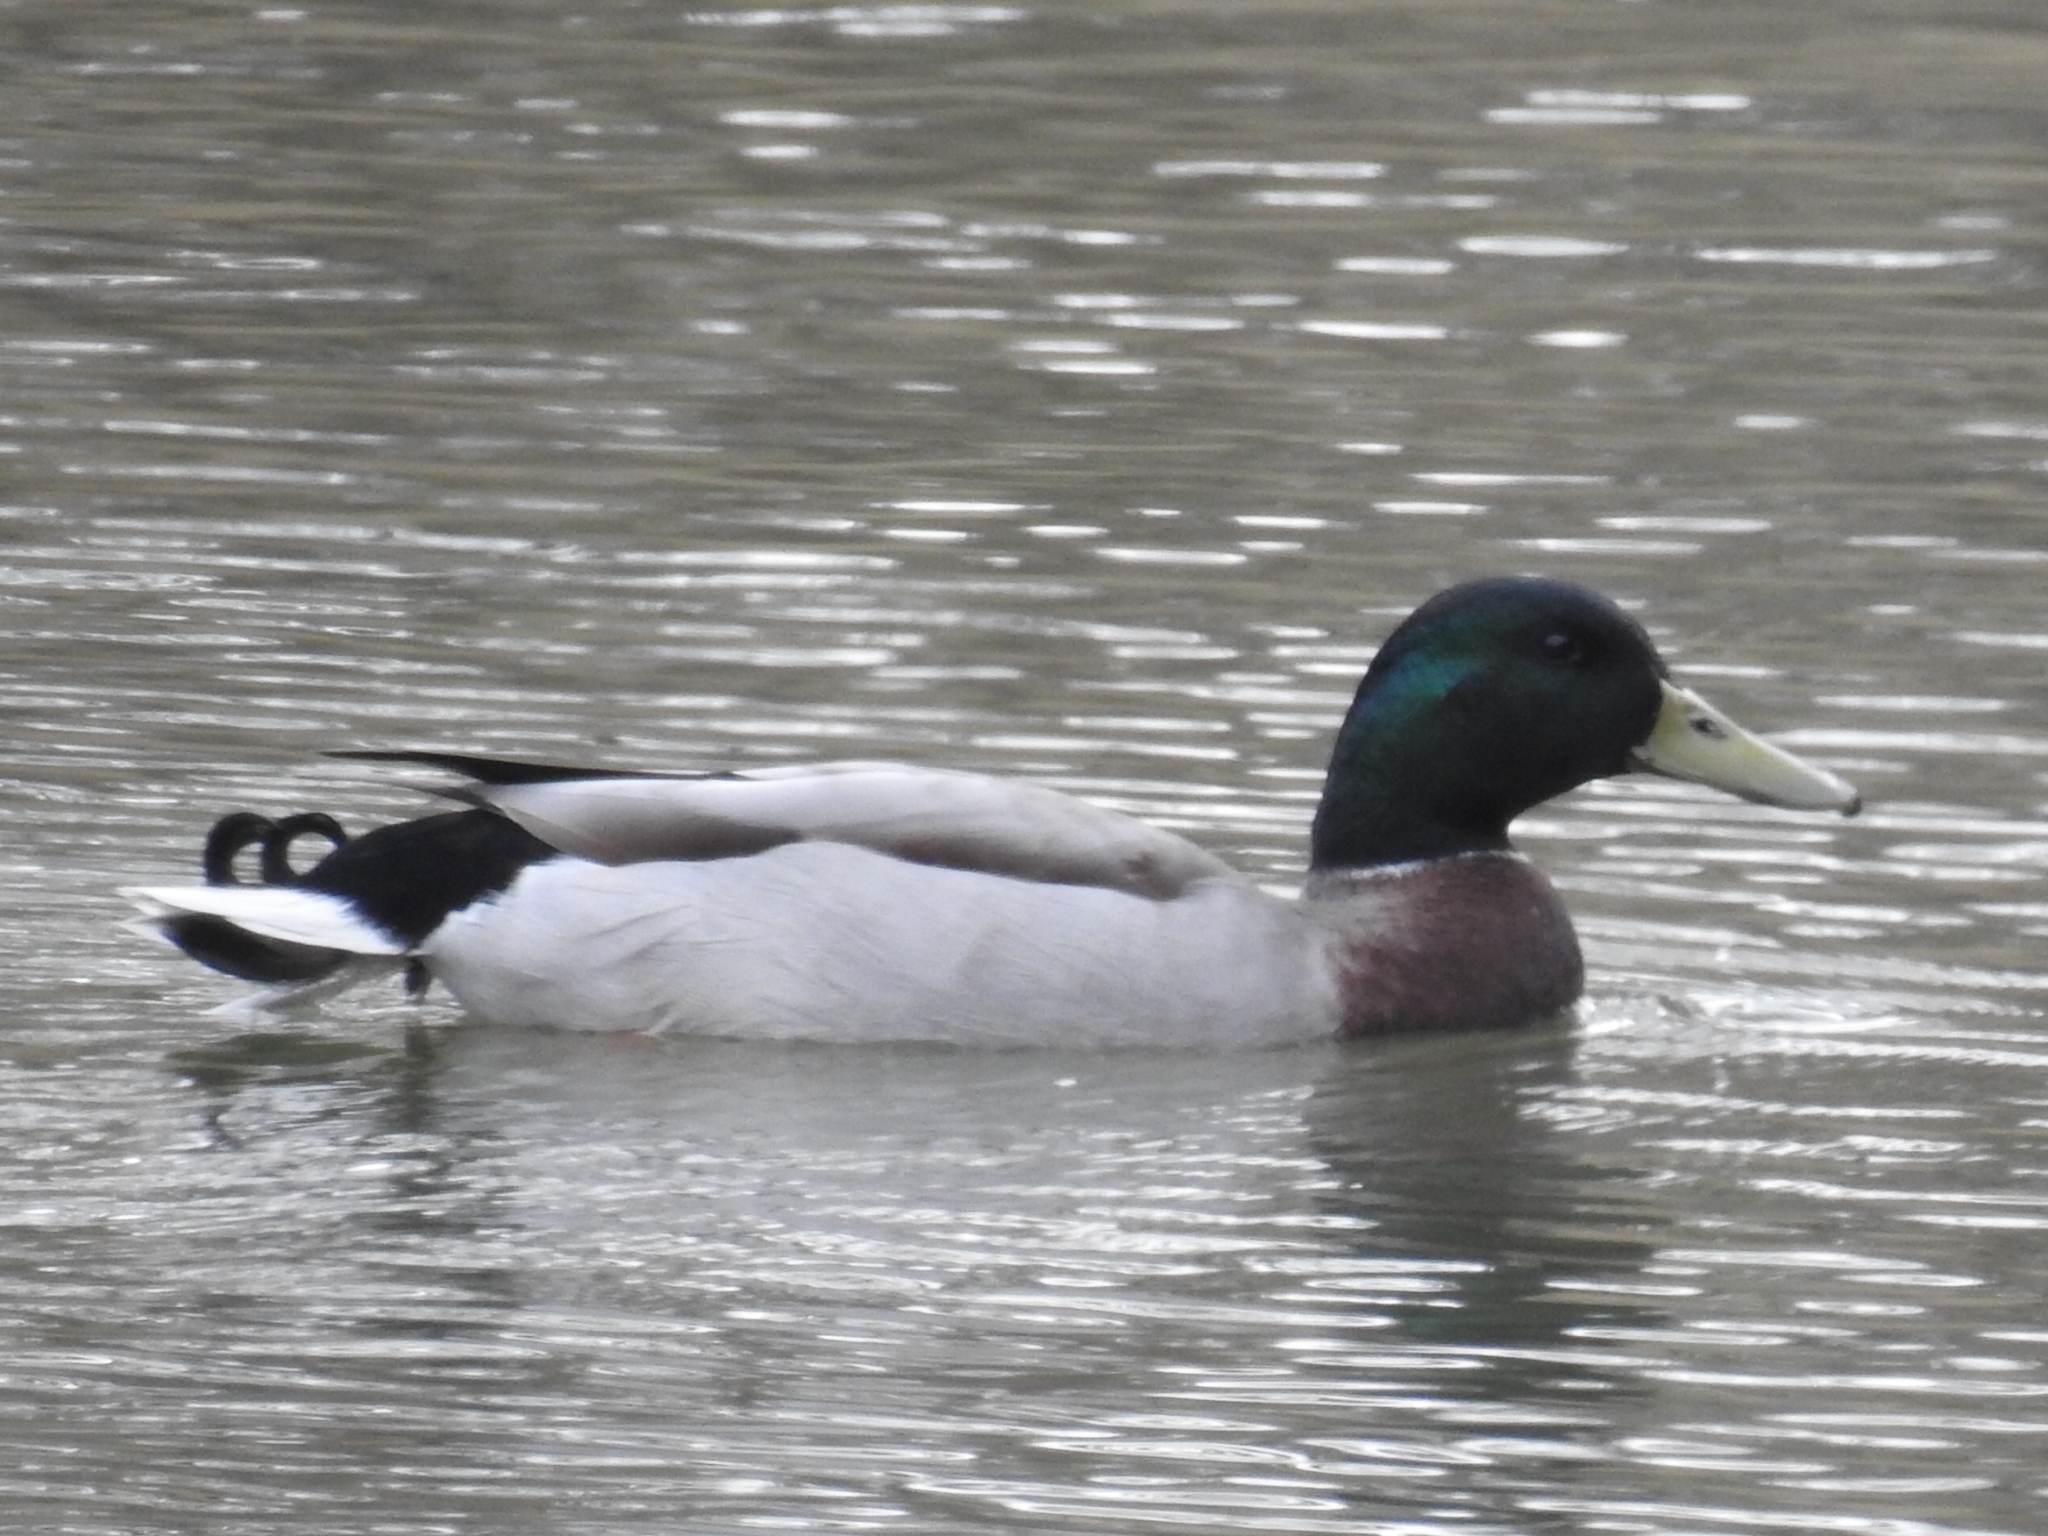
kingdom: Animalia
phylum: Chordata
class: Aves
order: Anseriformes
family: Anatidae
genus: Anas
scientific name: Anas platyrhynchos
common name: Mallard
